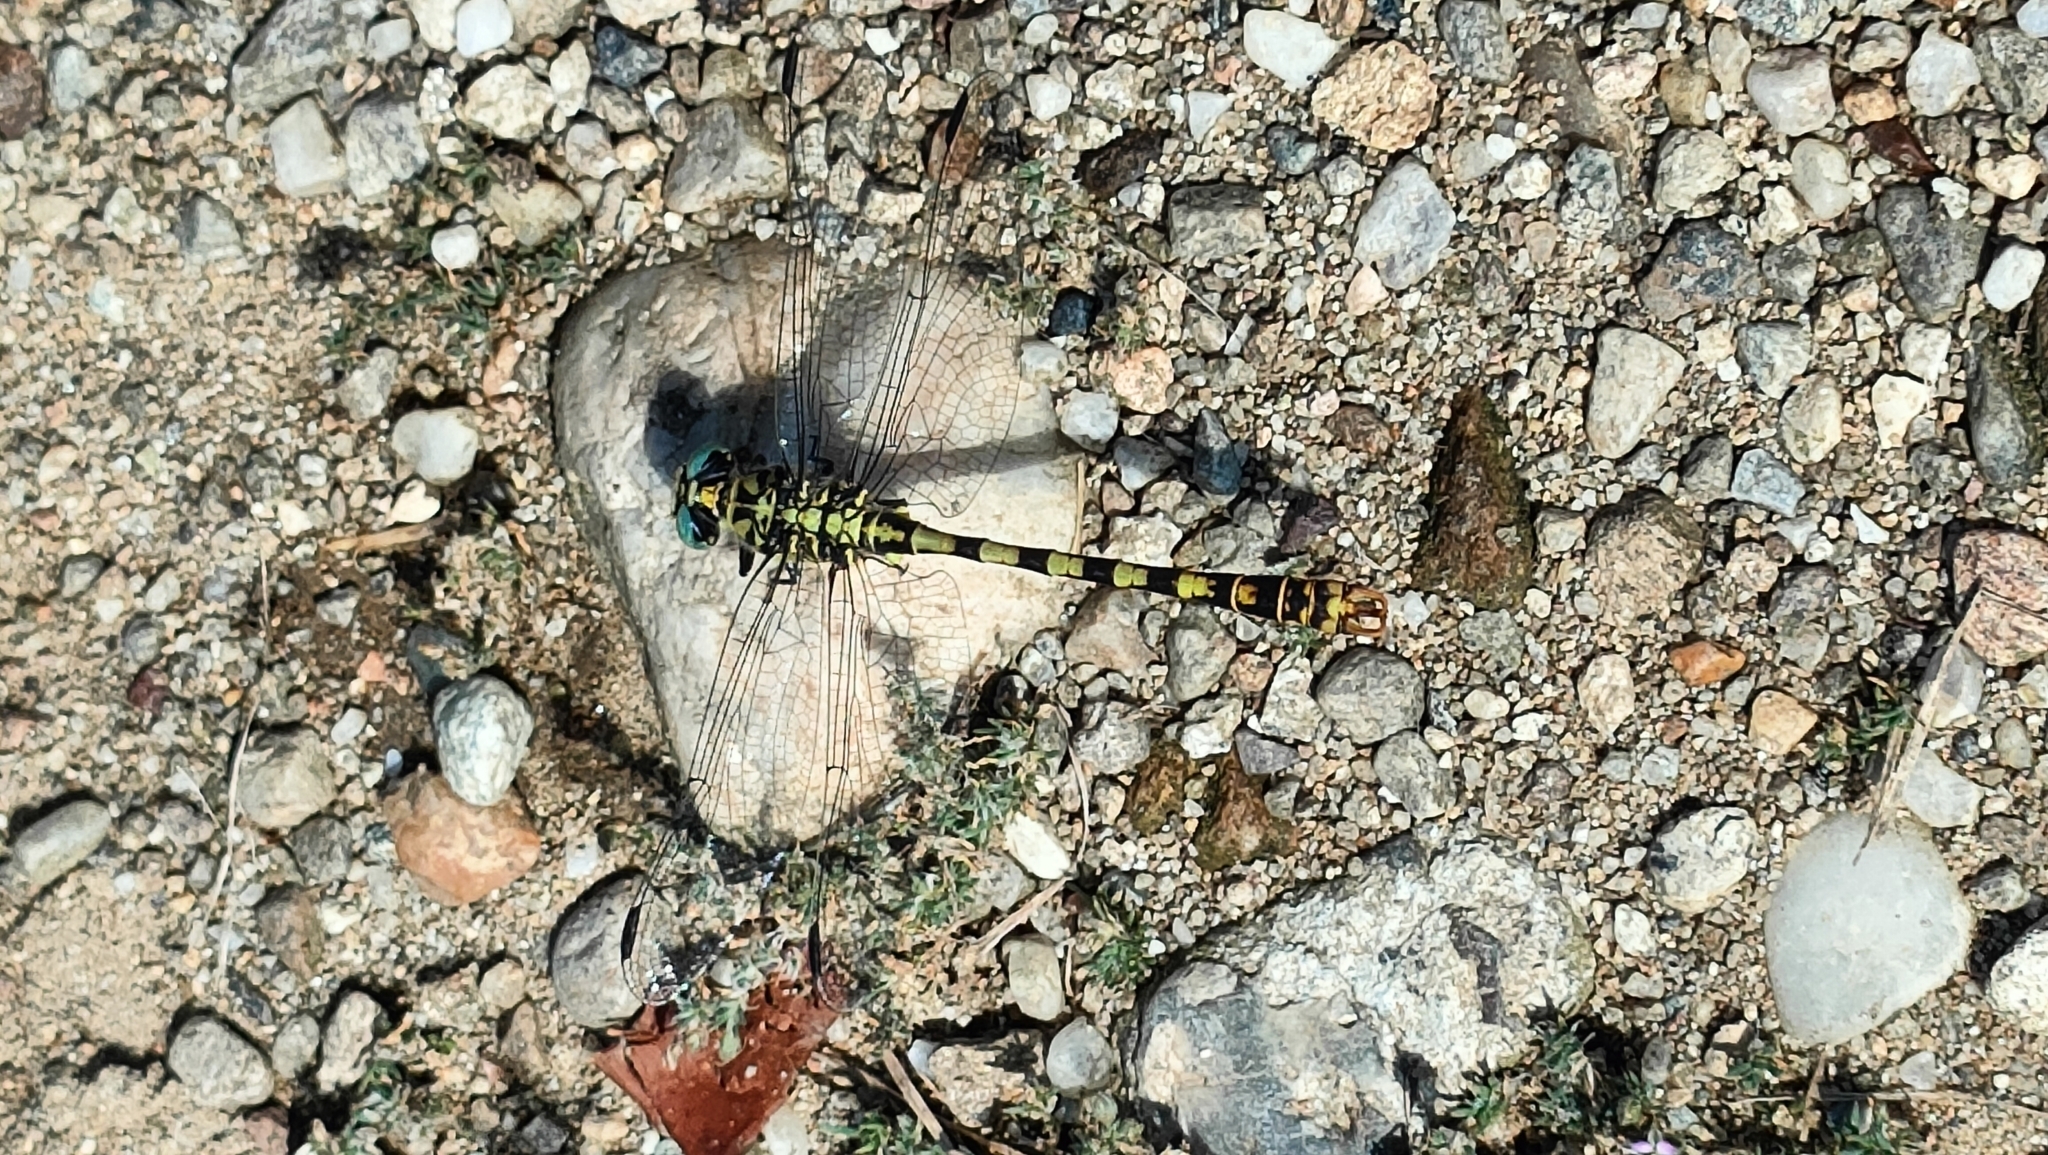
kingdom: Animalia
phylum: Arthropoda
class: Insecta
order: Odonata
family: Gomphidae
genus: Onychogomphus
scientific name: Onychogomphus forcipatus
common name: Small pincertail
